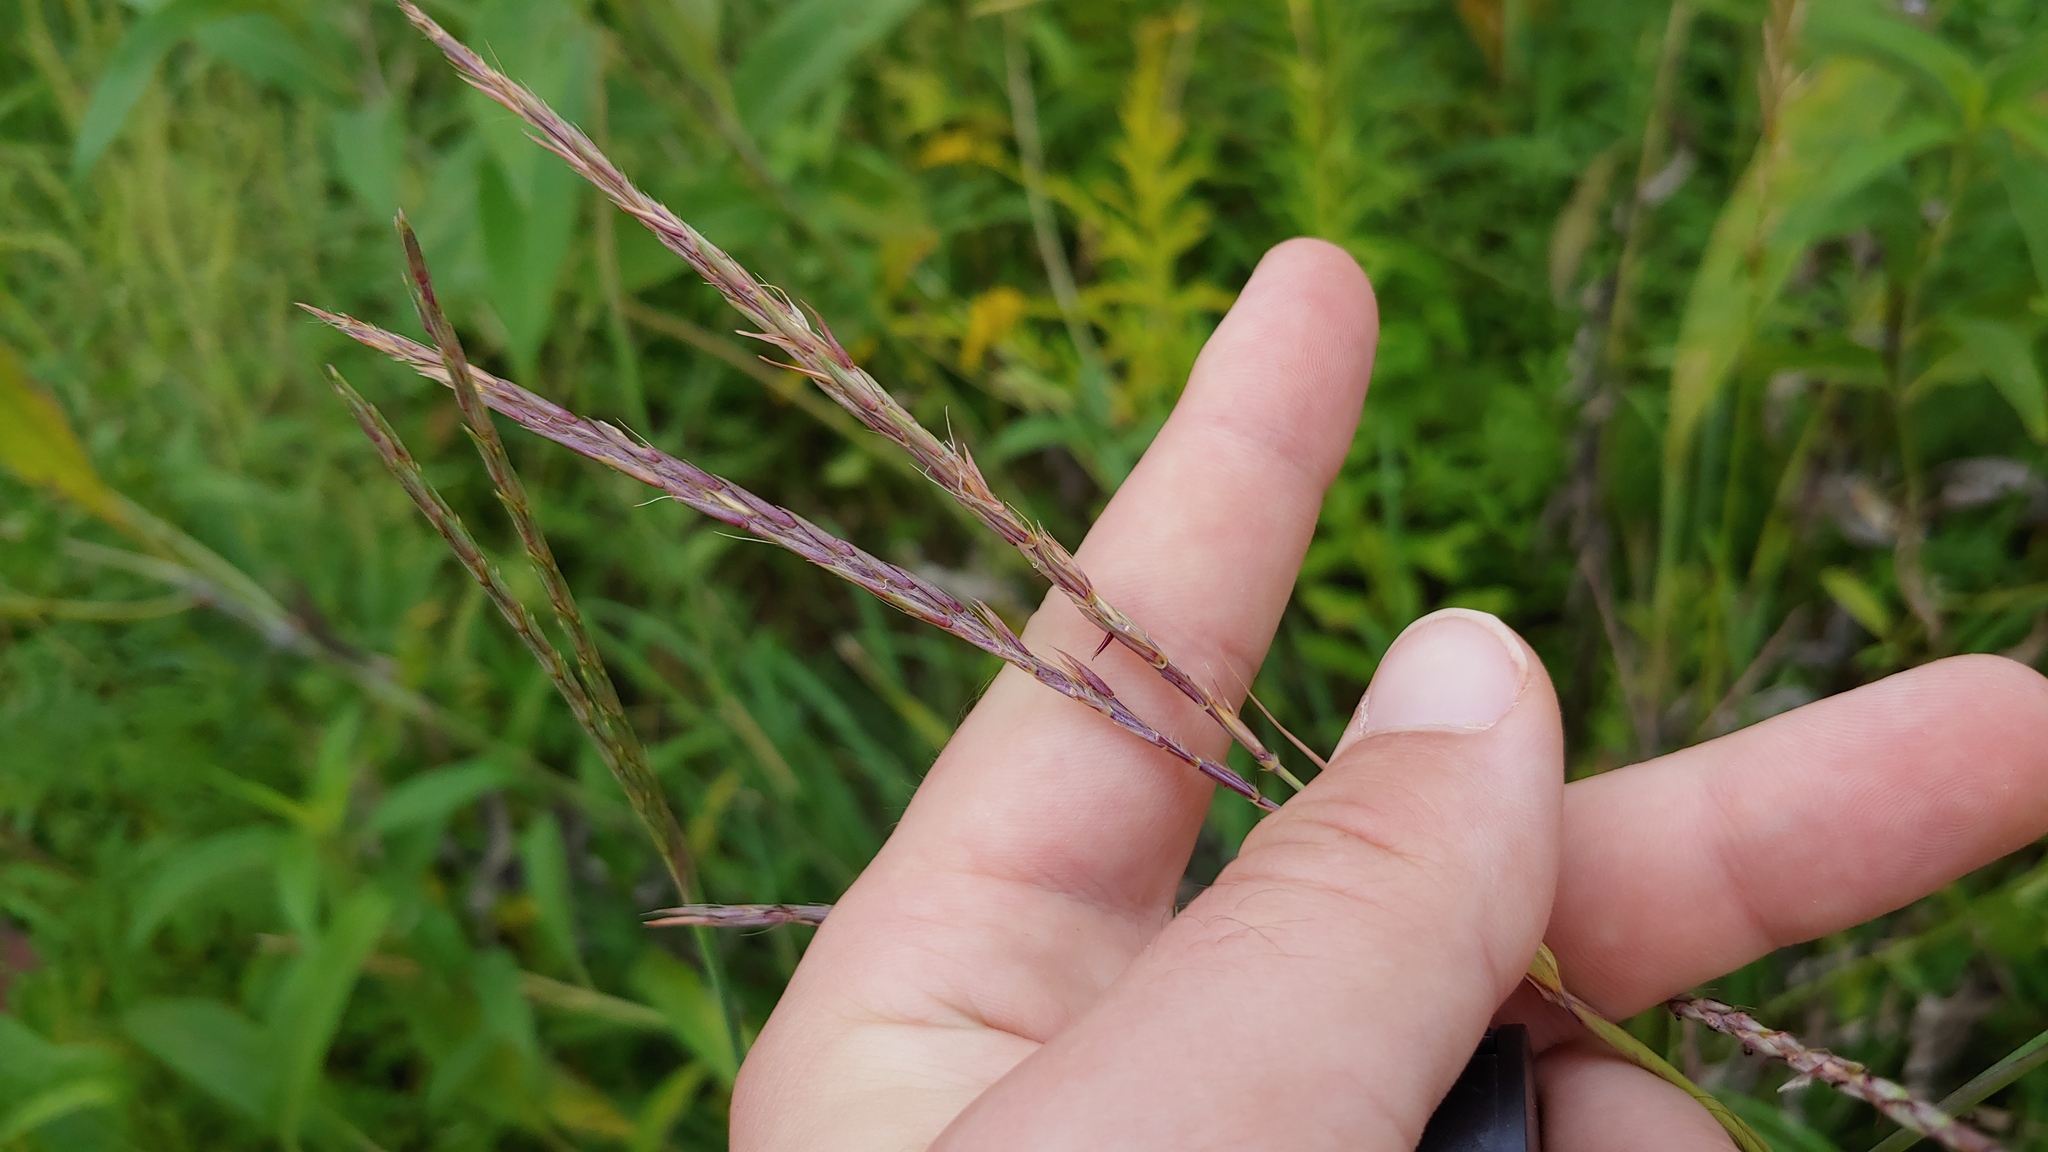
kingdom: Plantae
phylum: Tracheophyta
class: Liliopsida
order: Poales
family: Poaceae
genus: Andropogon
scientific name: Andropogon gerardi
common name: Big bluestem
